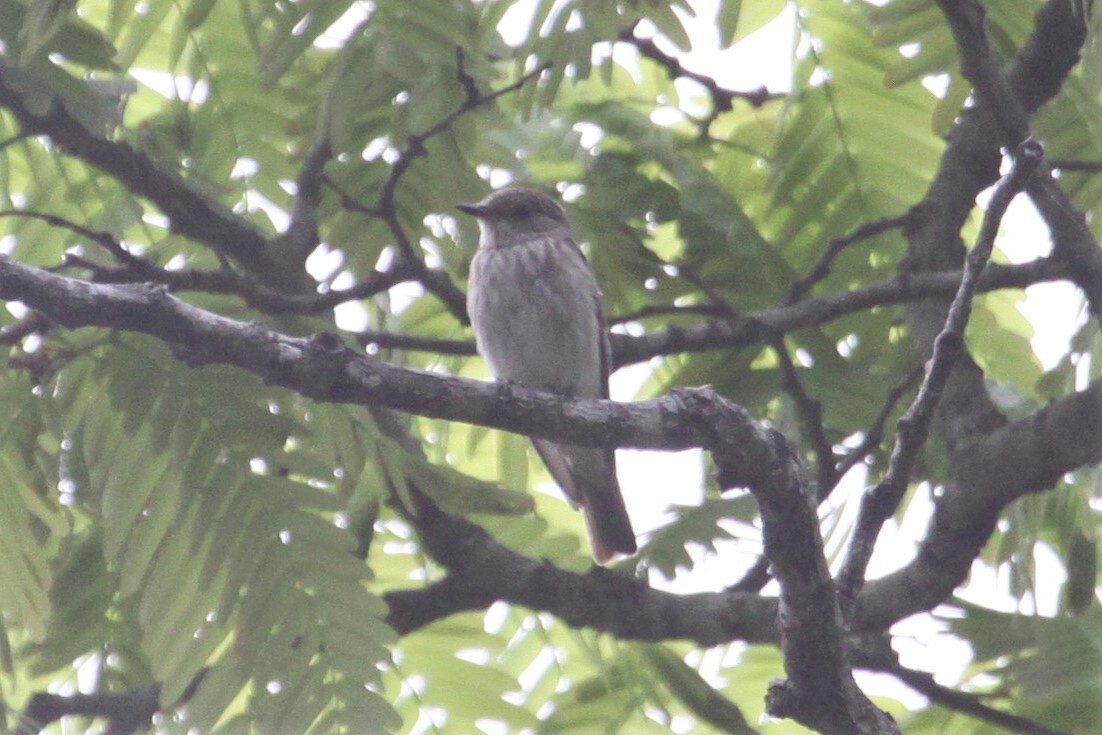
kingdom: Animalia
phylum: Chordata
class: Aves
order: Passeriformes
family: Muscicapidae
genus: Muscicapa
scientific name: Muscicapa striata
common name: Spotted flycatcher
